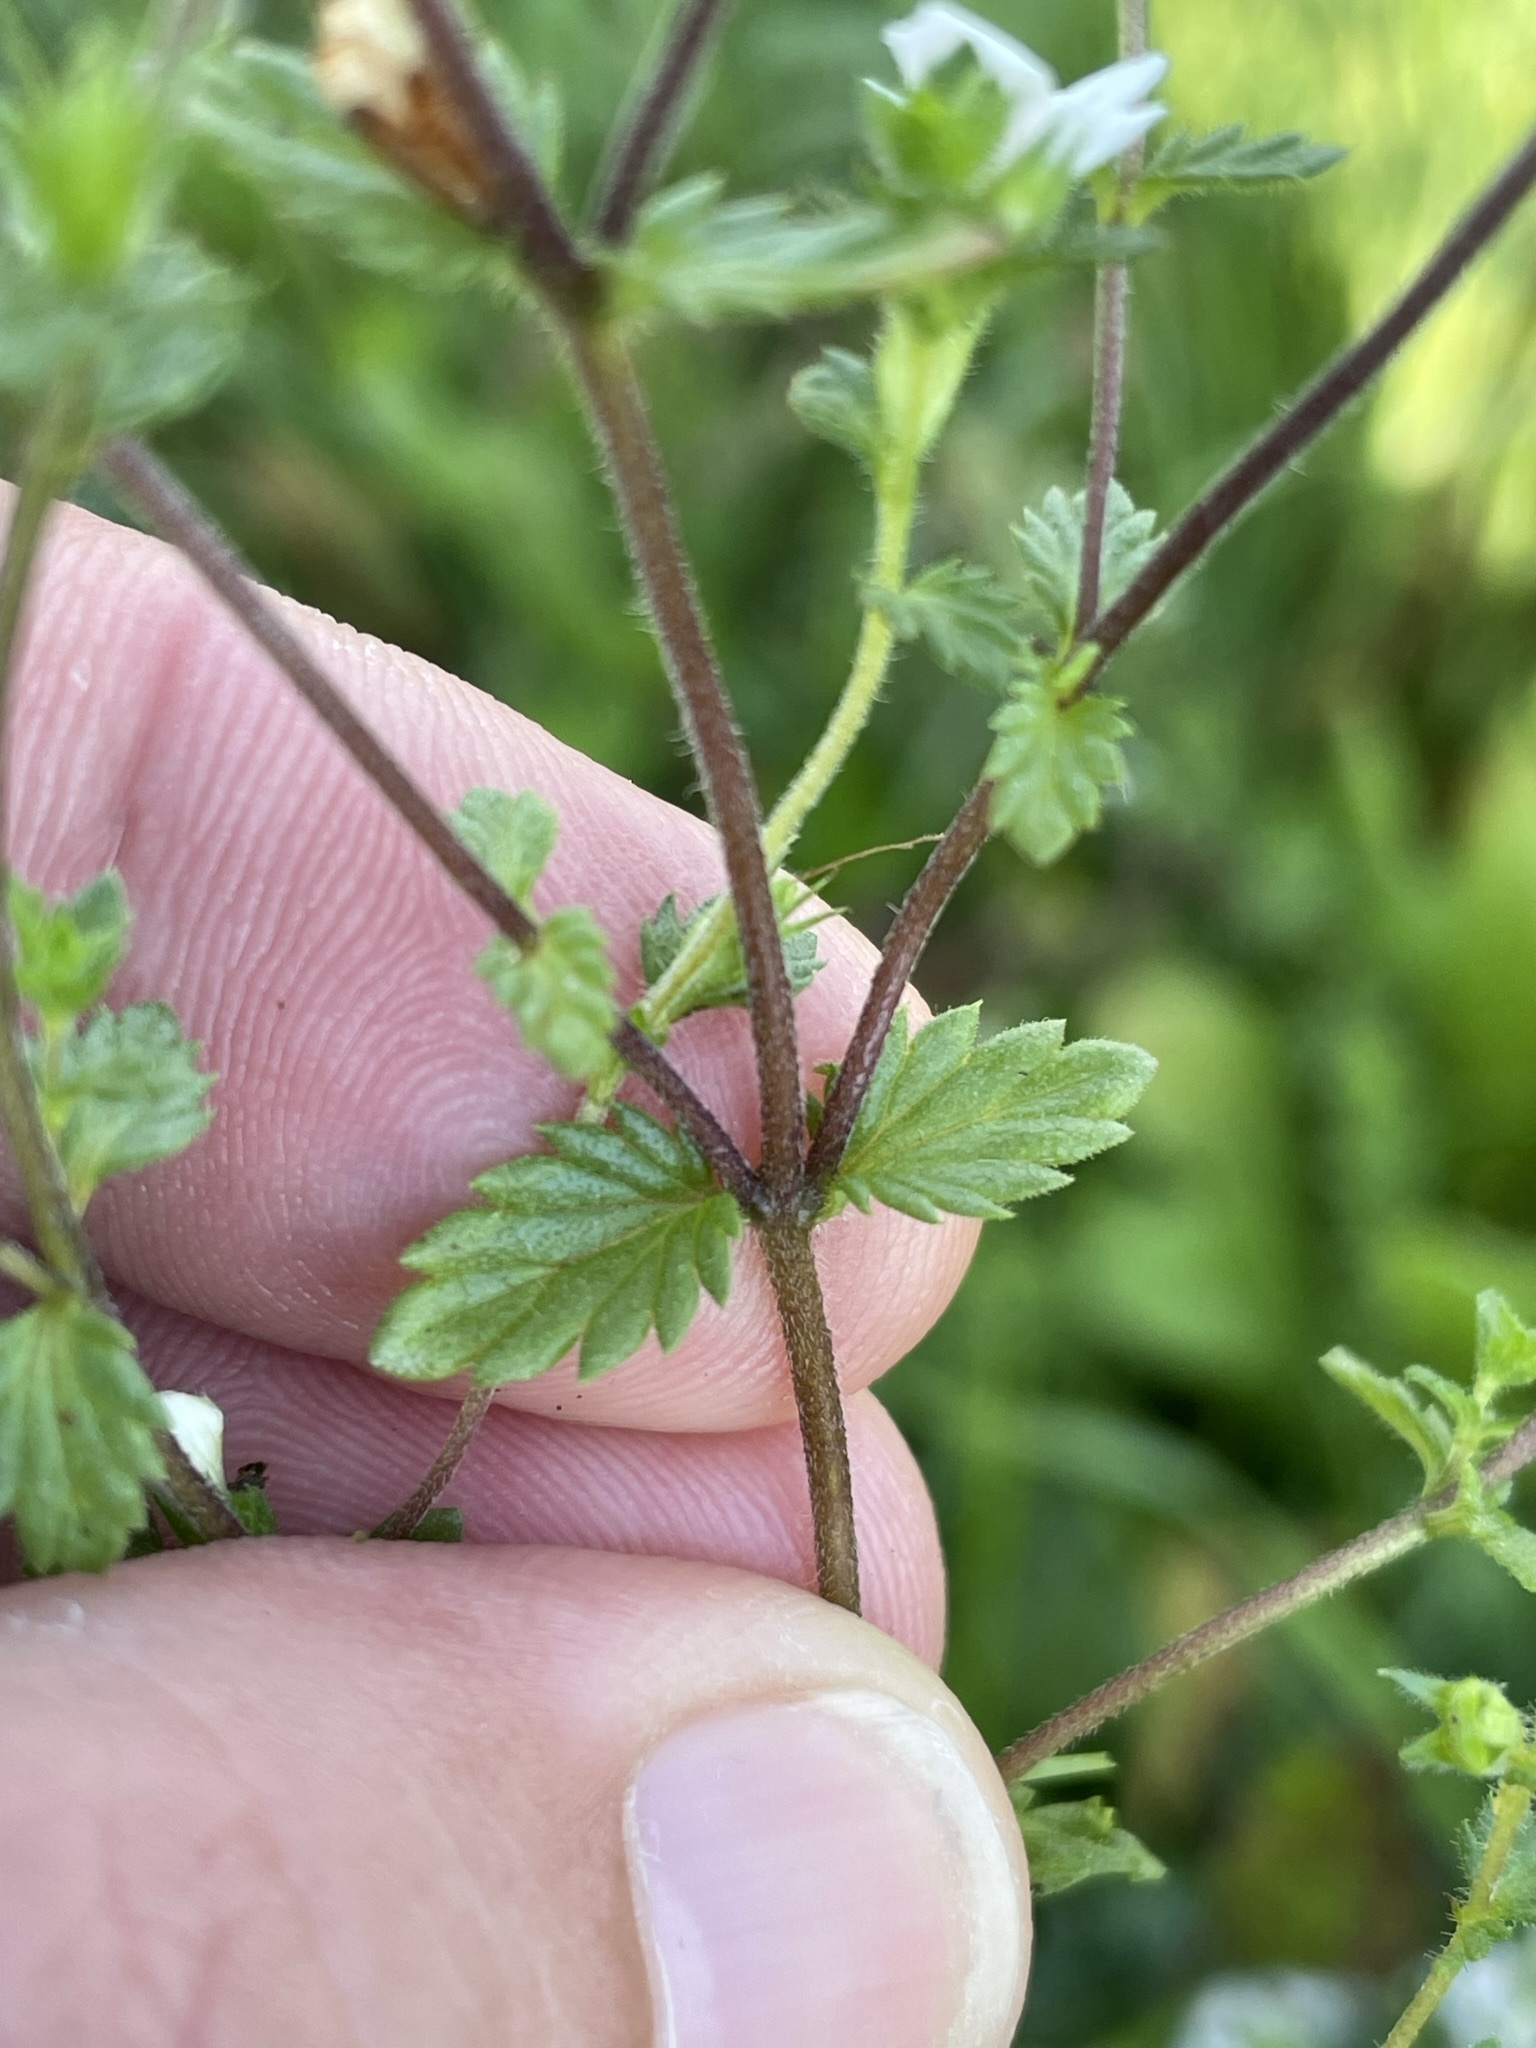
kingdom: Plantae
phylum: Tracheophyta
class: Magnoliopsida
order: Lamiales
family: Orobanchaceae
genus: Euphrasia
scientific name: Euphrasia officinalis
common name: Eyebright
